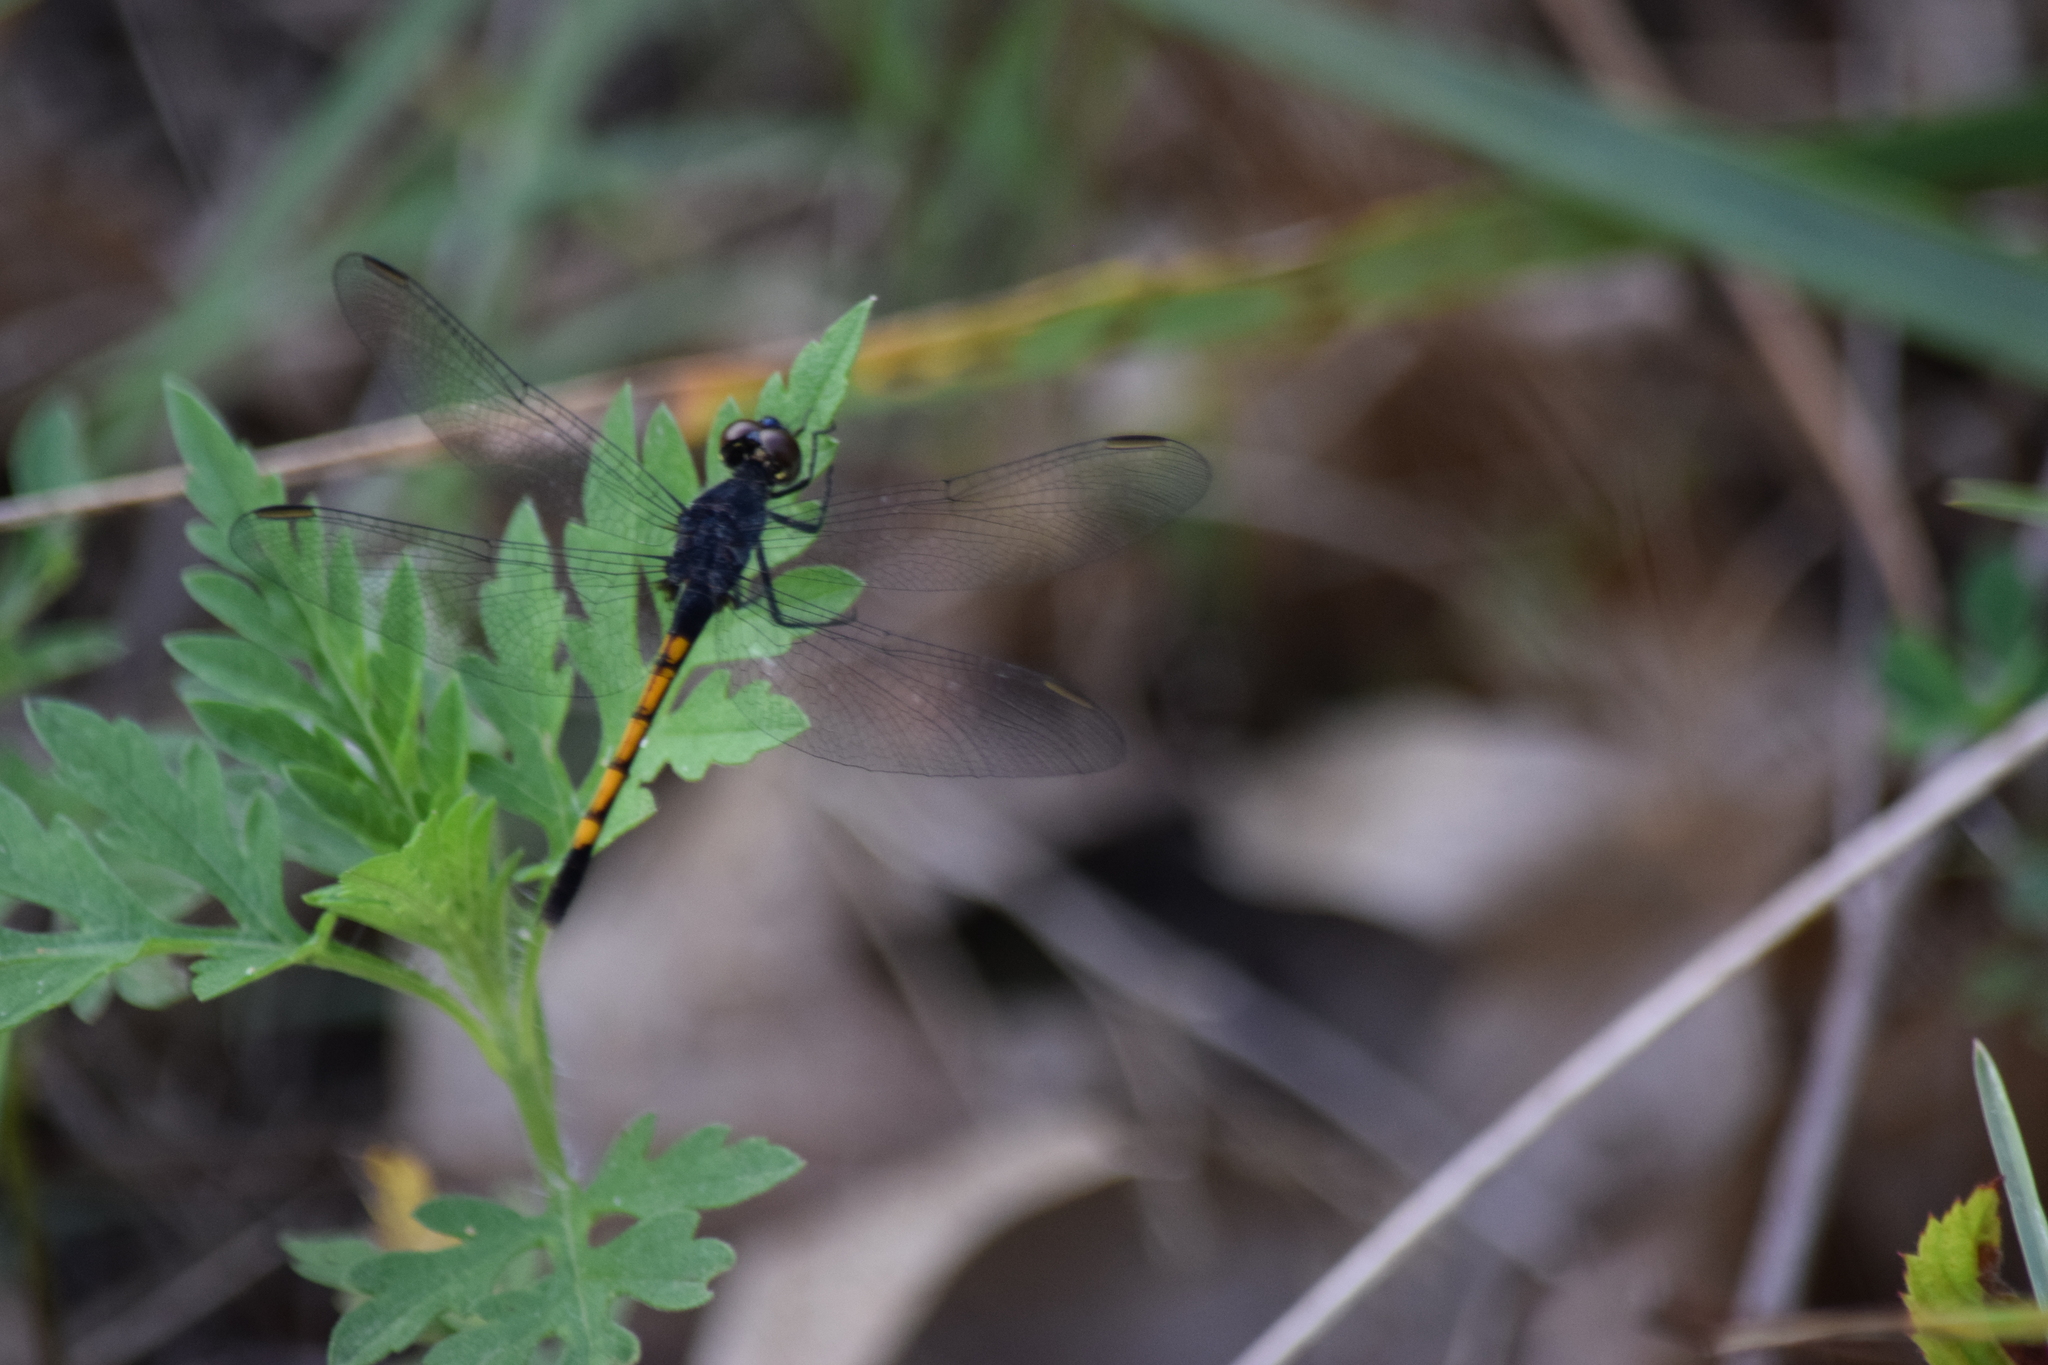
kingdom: Animalia
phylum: Arthropoda
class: Insecta
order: Odonata
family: Libellulidae
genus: Erythrodiplax
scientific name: Erythrodiplax berenice
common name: Seaside dragonlet
